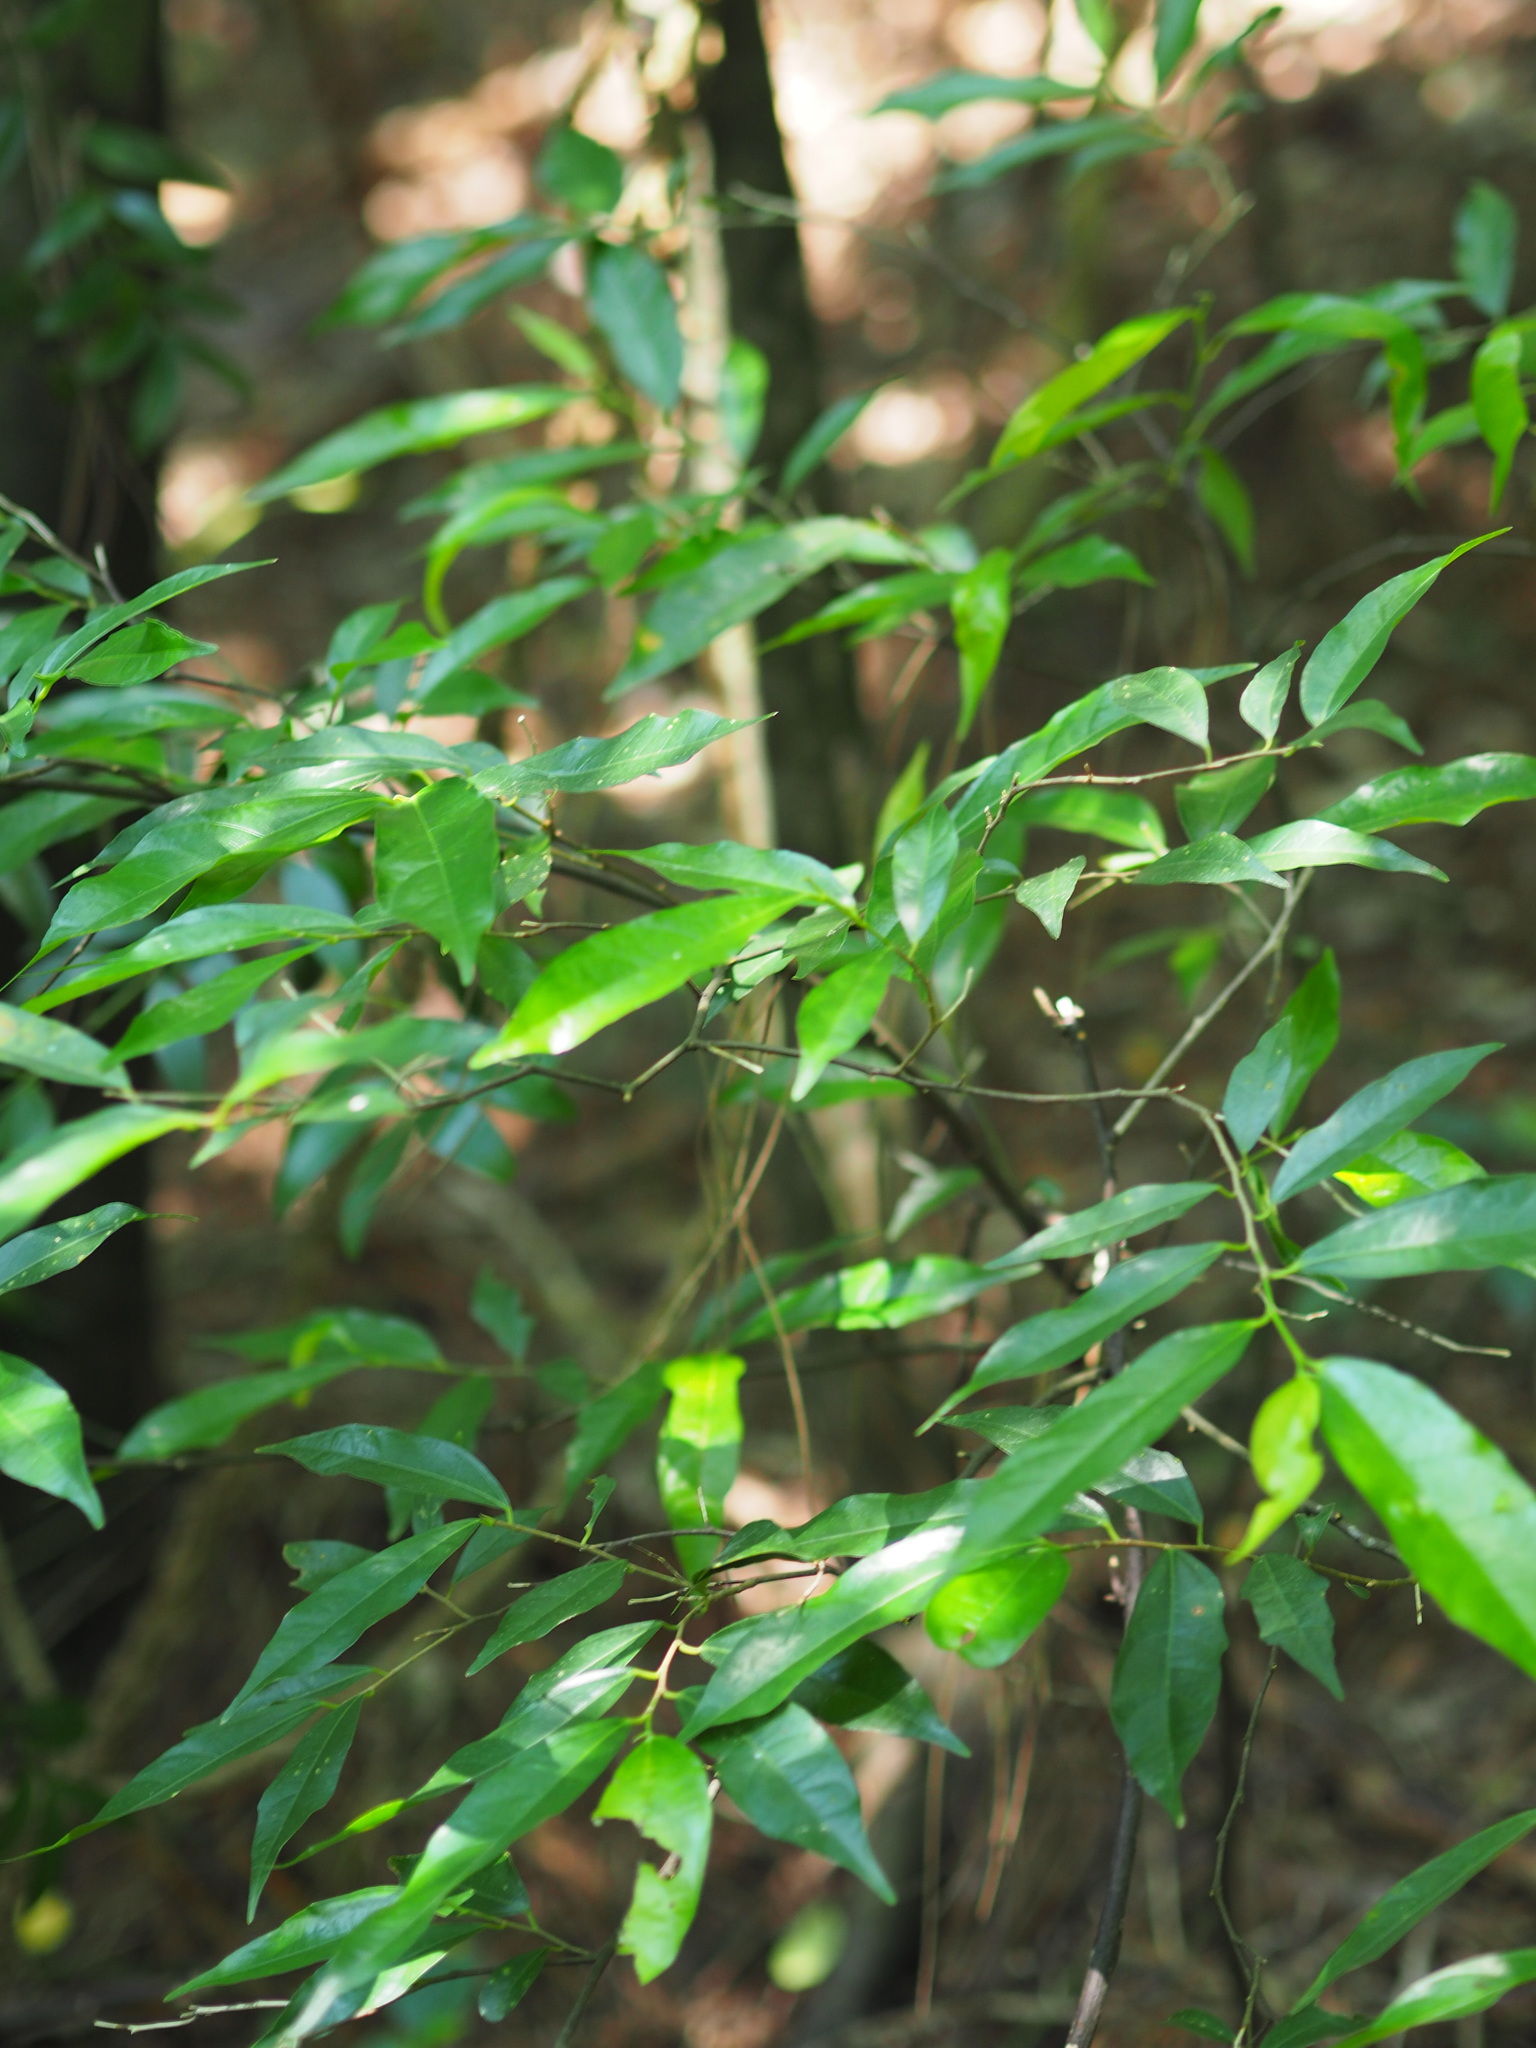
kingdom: Plantae
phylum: Tracheophyta
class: Magnoliopsida
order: Rosales
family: Moraceae
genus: Ficus
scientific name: Ficus ampelos
